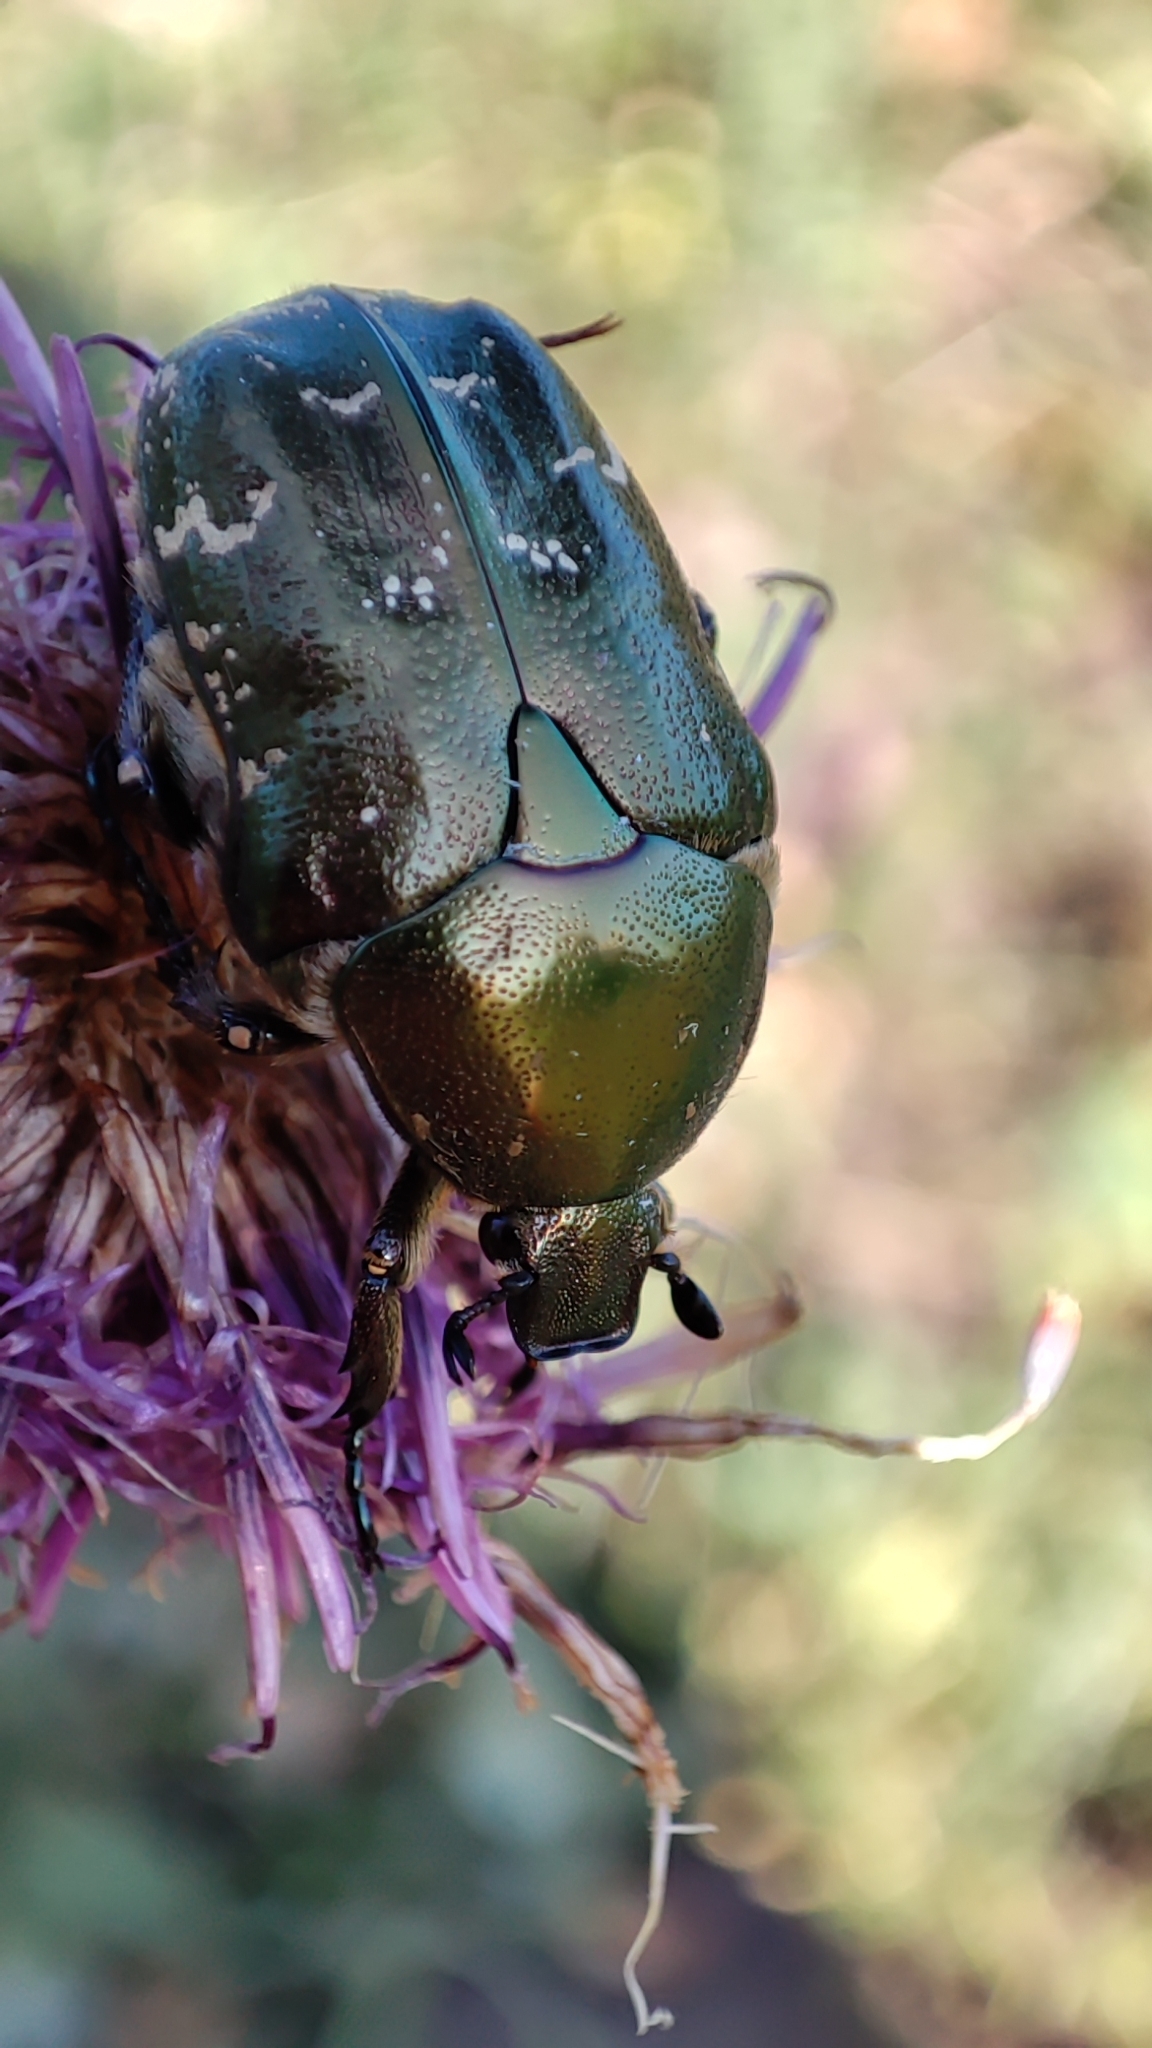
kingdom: Animalia
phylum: Arthropoda
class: Insecta
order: Coleoptera
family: Scarabaeidae
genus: Protaetia
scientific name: Protaetia cuprea
